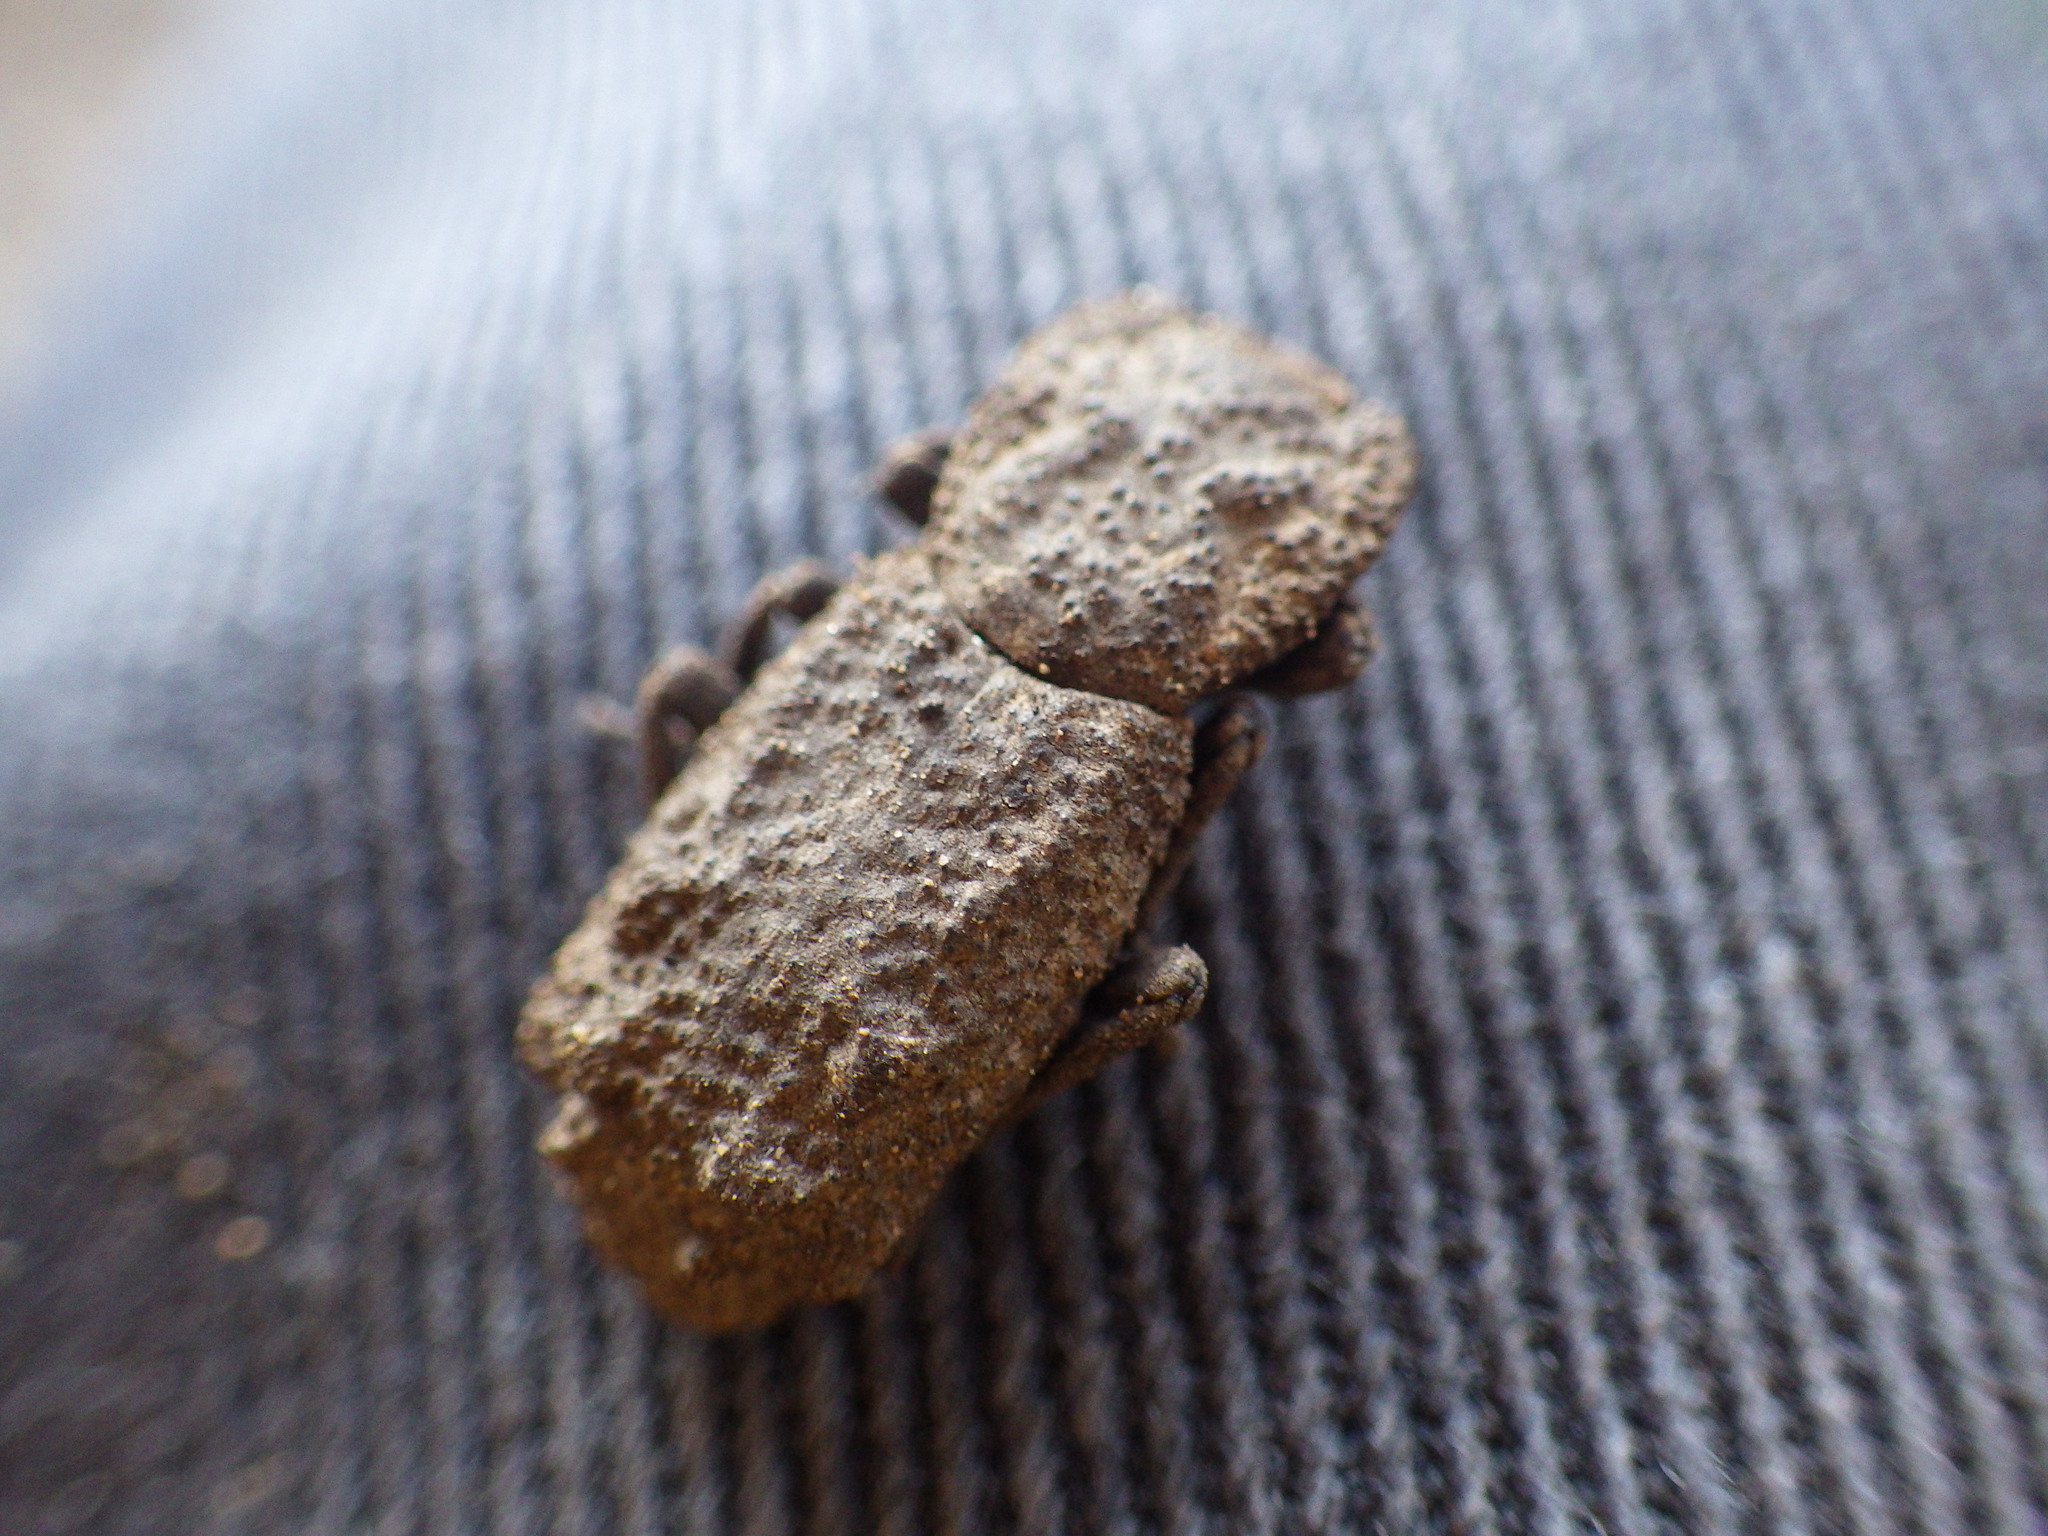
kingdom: Animalia
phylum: Arthropoda
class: Insecta
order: Coleoptera
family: Zopheridae
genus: Phloeodes
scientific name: Phloeodes plicatus
